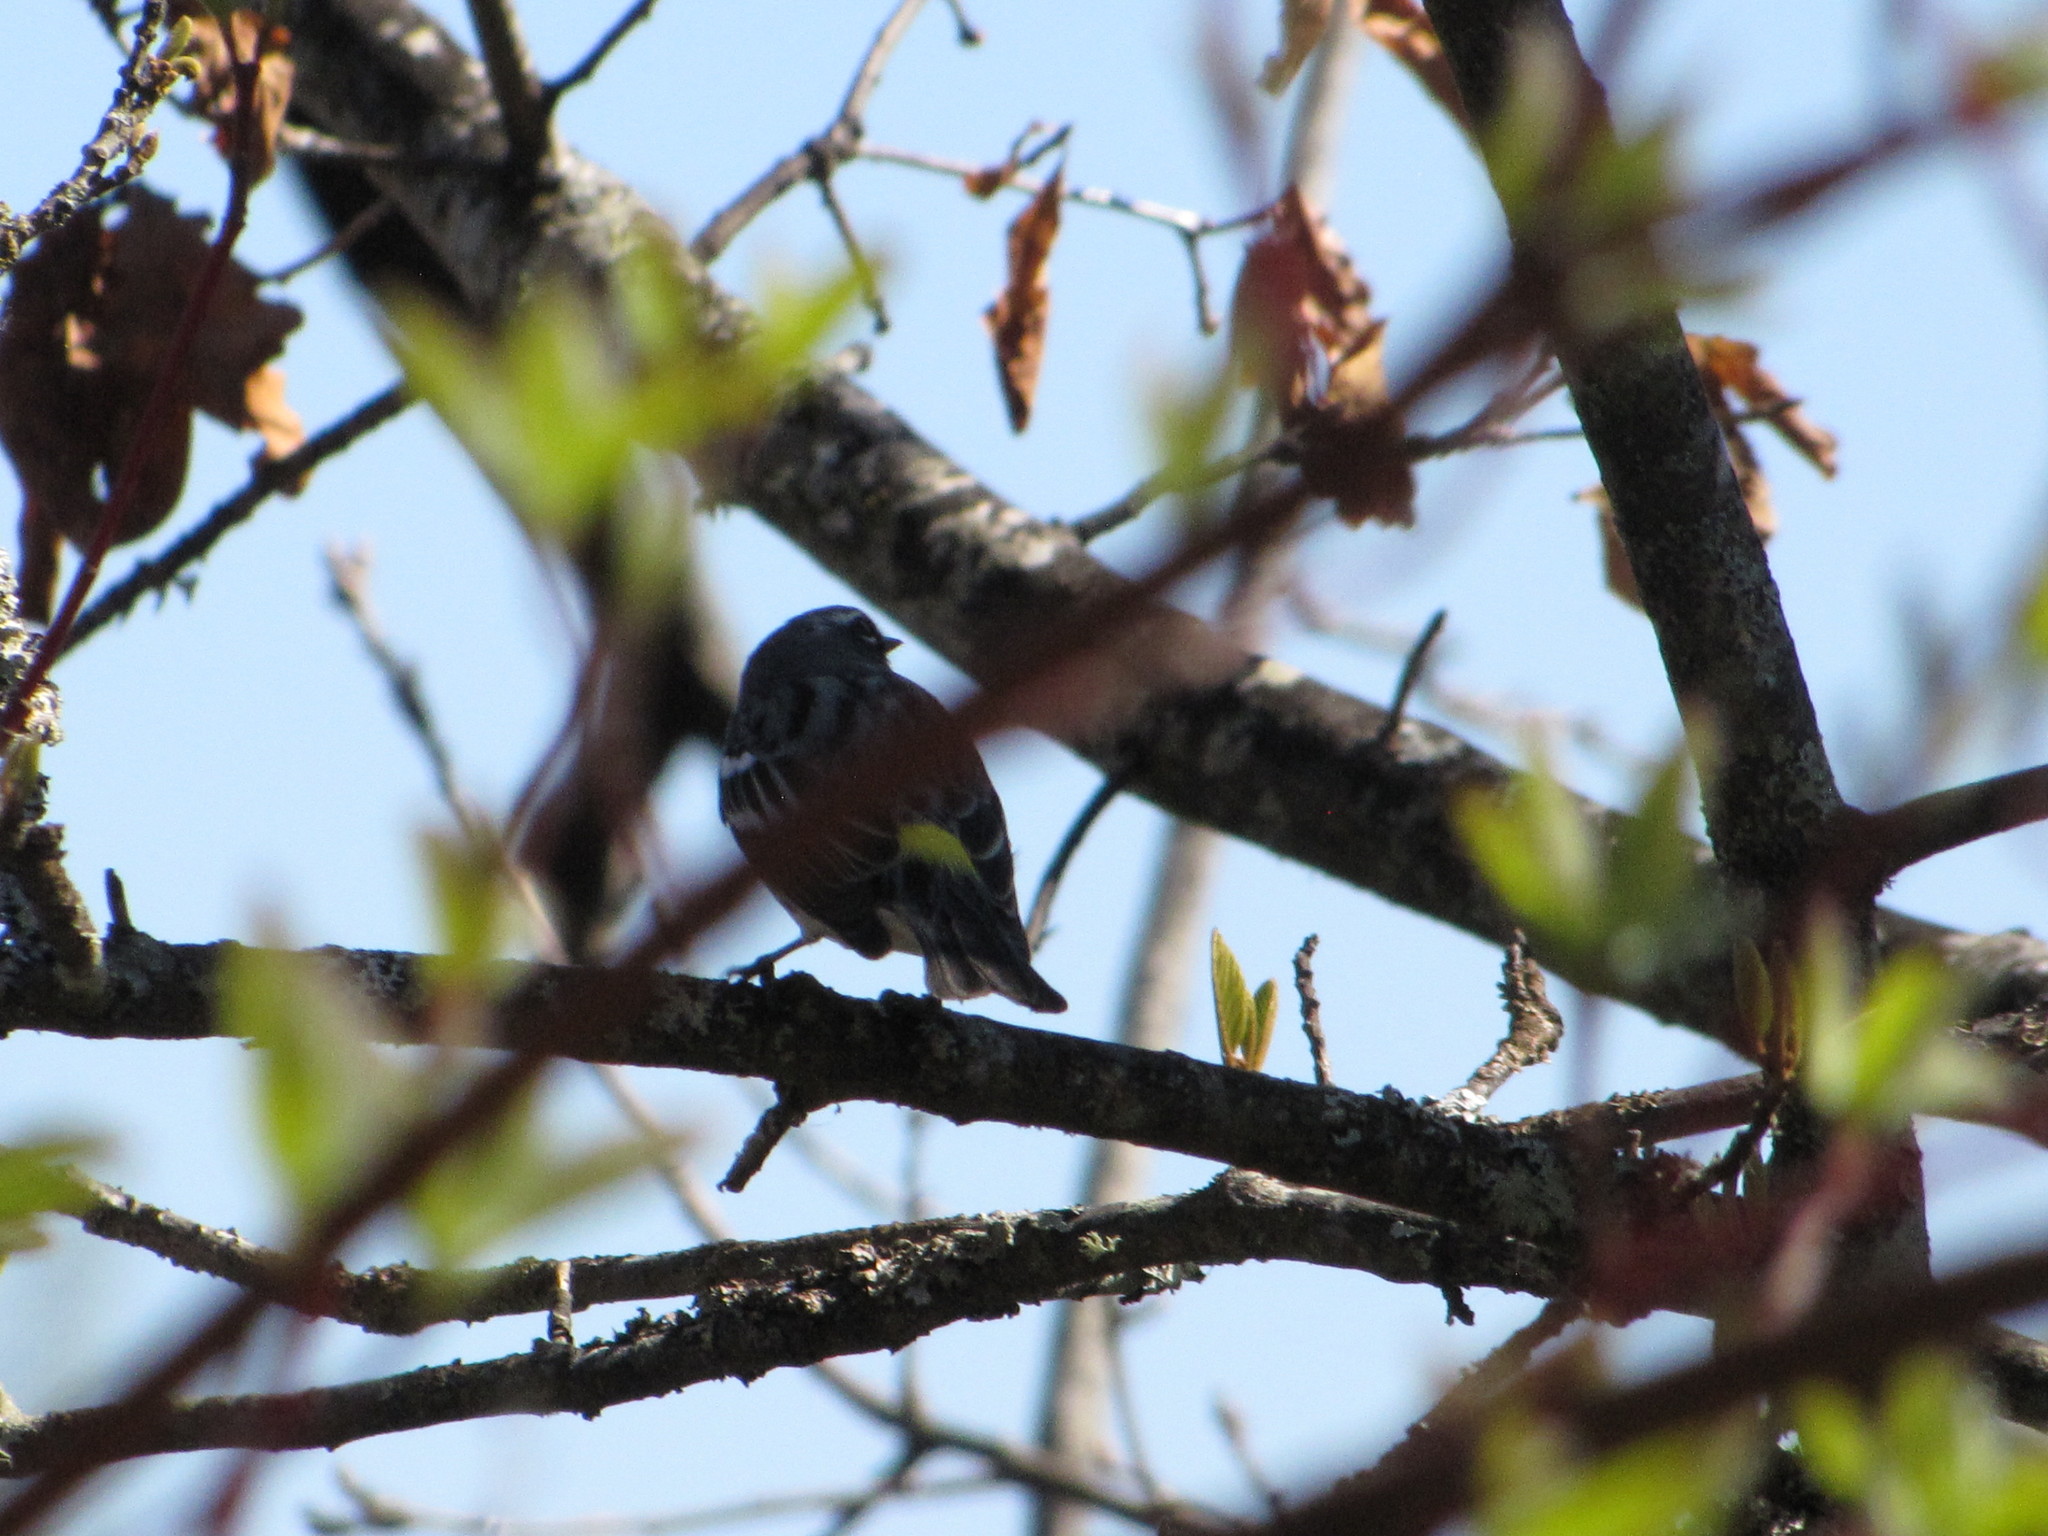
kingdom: Animalia
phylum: Chordata
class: Aves
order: Passeriformes
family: Parulidae
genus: Setophaga
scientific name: Setophaga coronata
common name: Myrtle warbler
